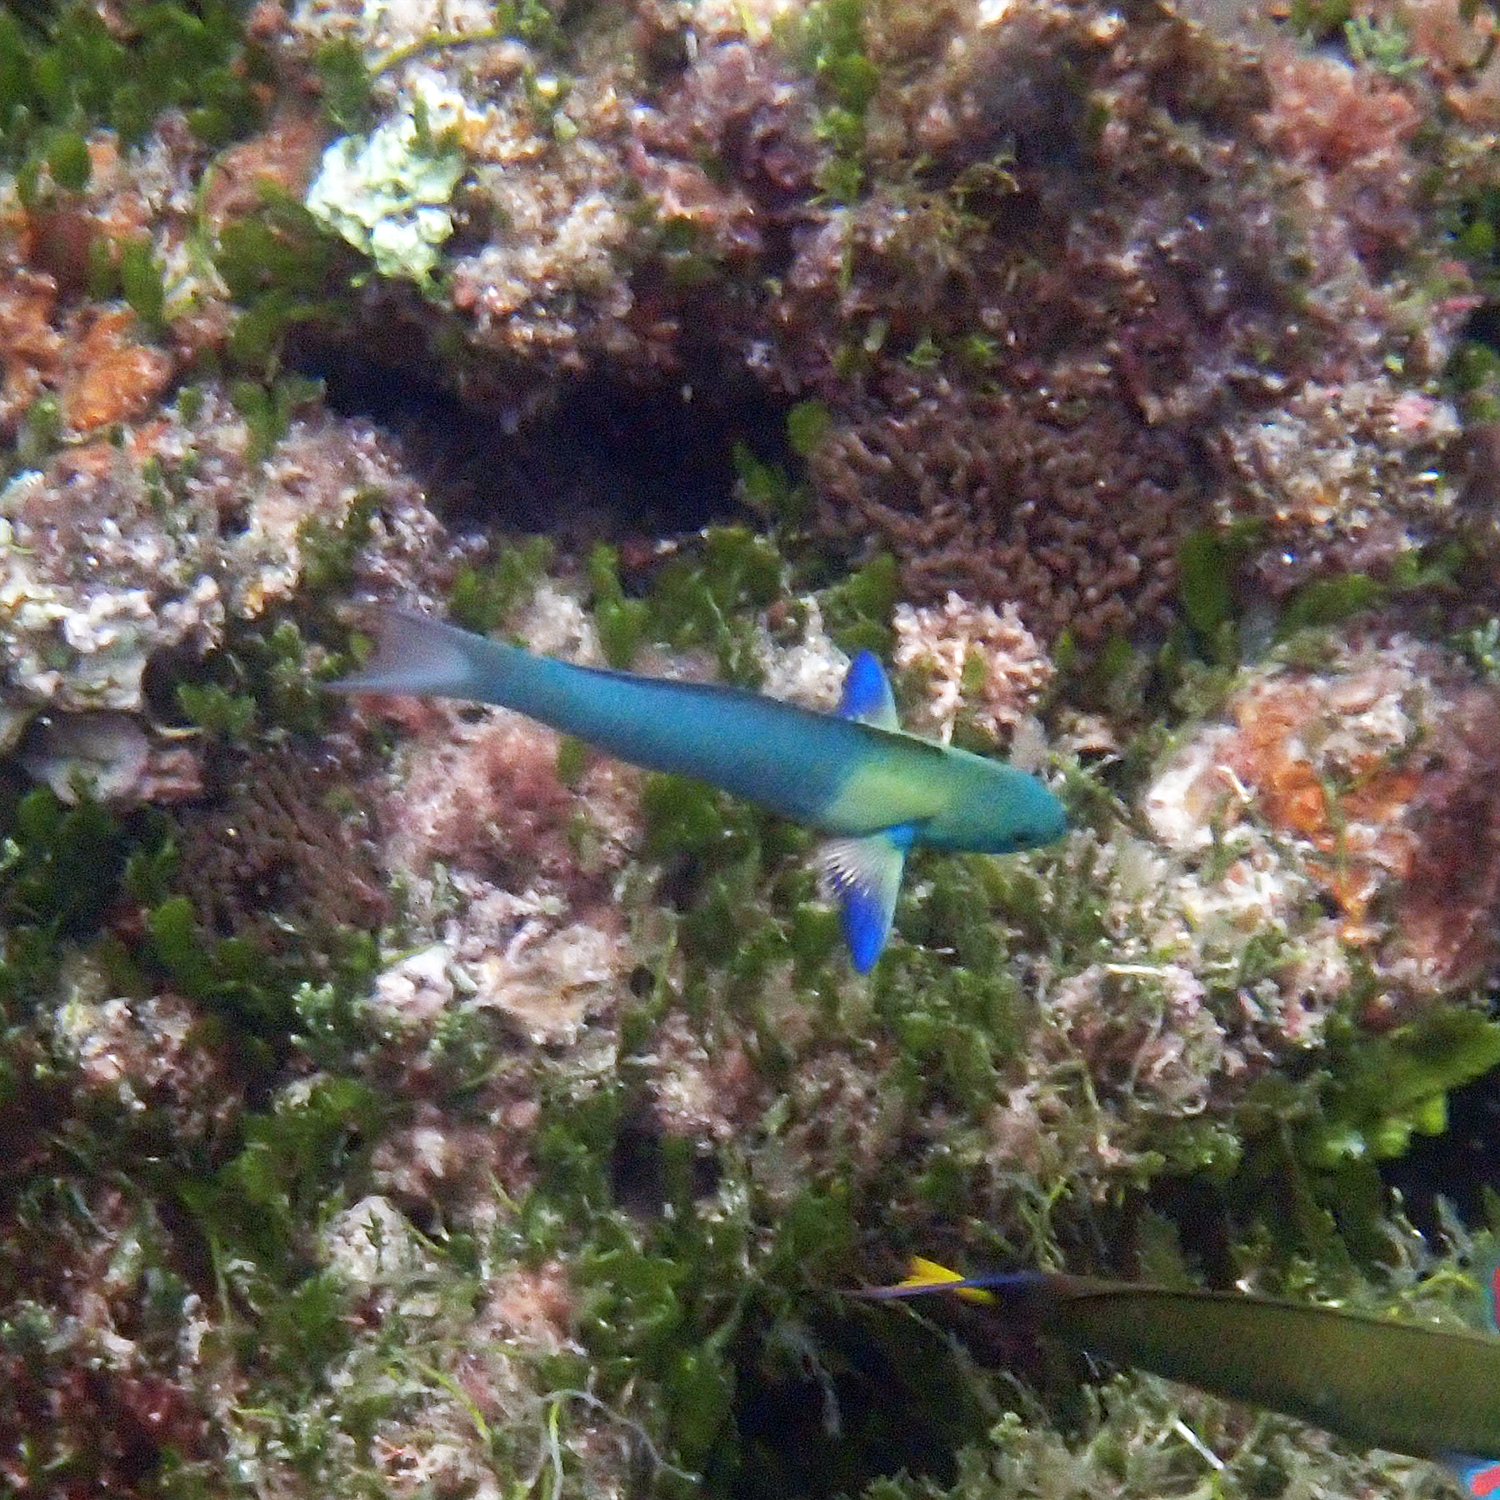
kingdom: Animalia
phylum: Chordata
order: Perciformes
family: Labridae
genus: Thalassoma
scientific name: Thalassoma amblycephalum
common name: Bluehead wrasse
